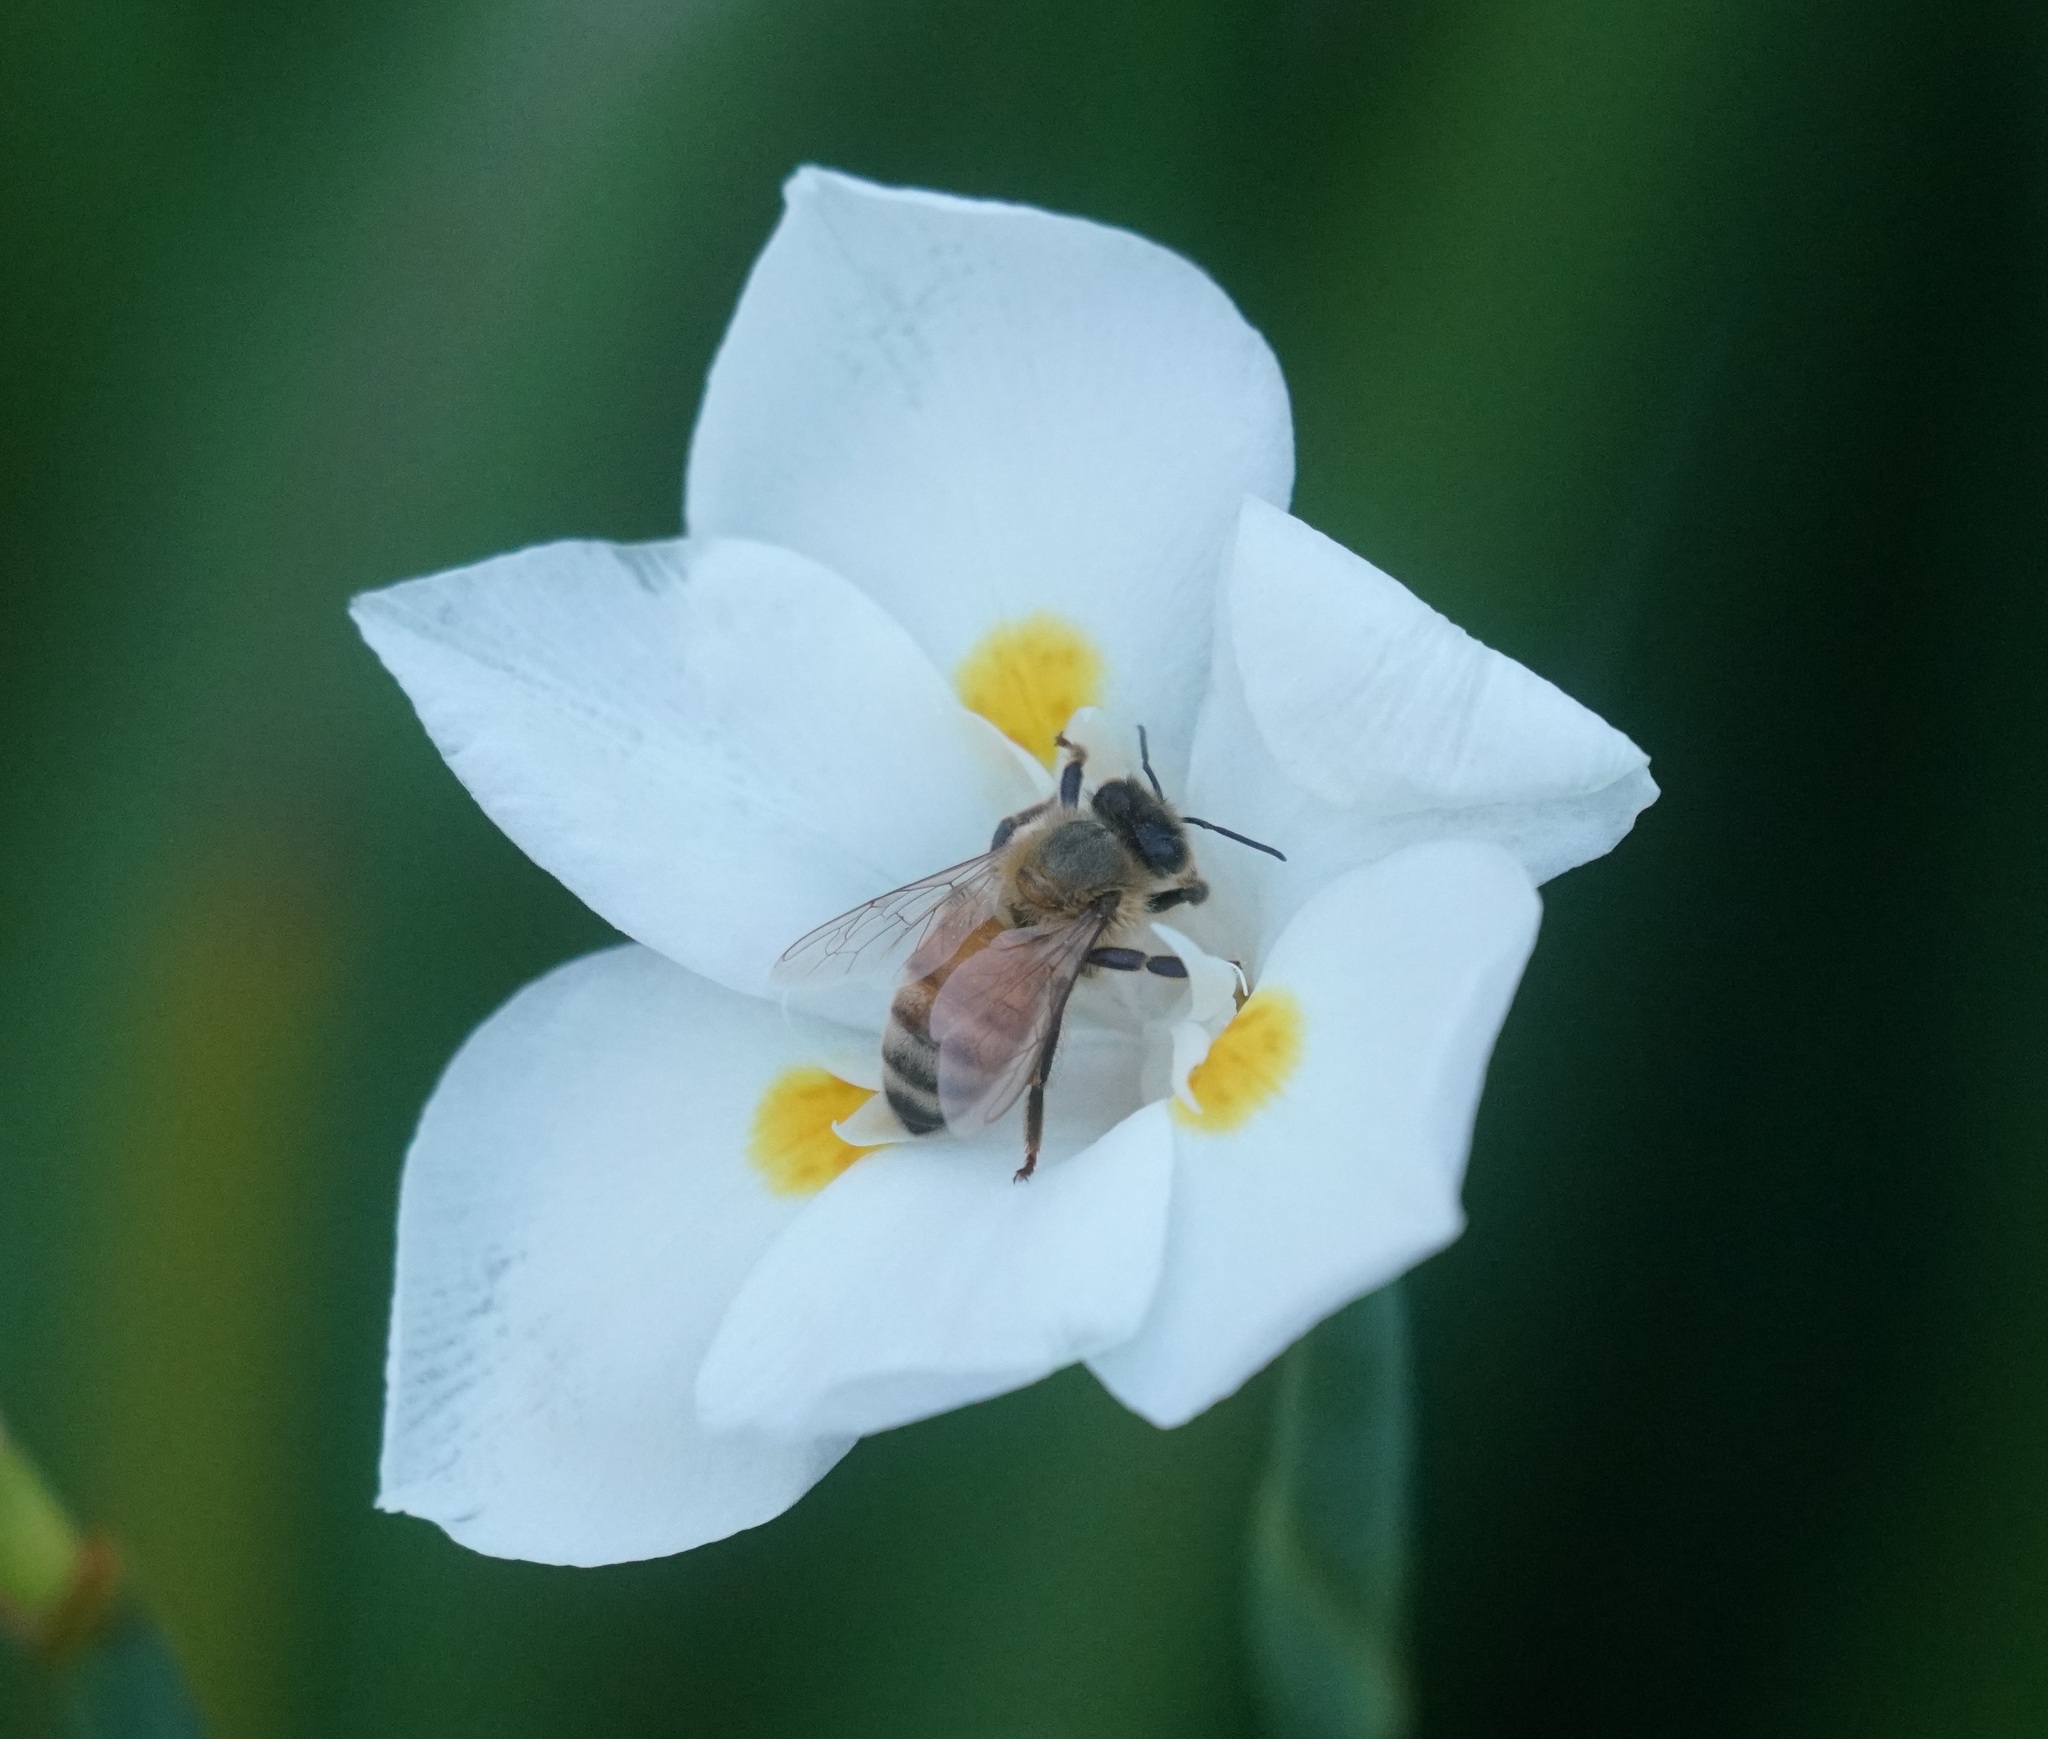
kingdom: Animalia
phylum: Arthropoda
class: Insecta
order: Hymenoptera
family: Apidae
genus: Apis
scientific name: Apis mellifera
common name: Honey bee
